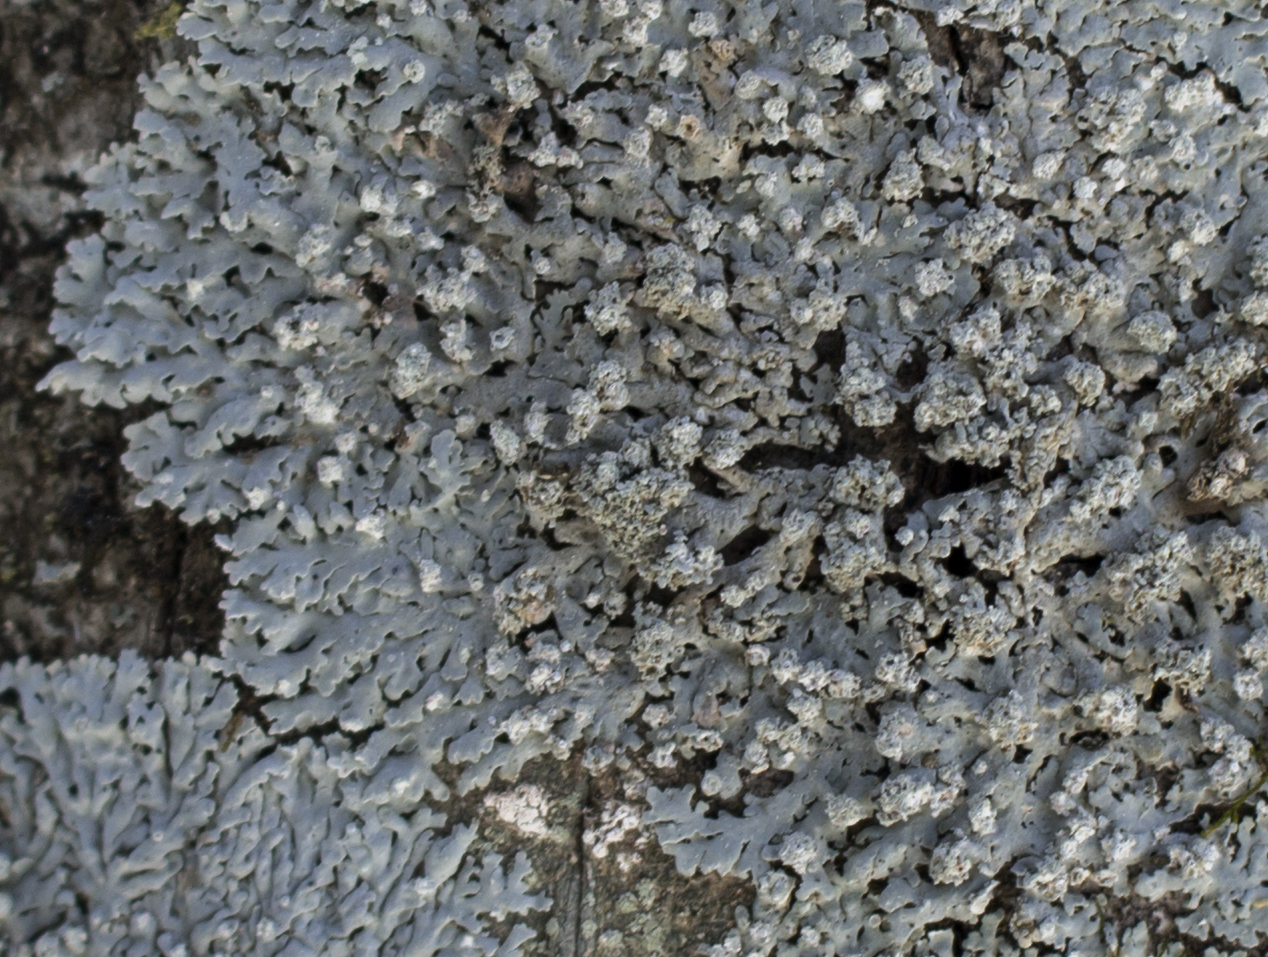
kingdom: Fungi
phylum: Ascomycota
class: Lecanoromycetes
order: Caliciales
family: Physciaceae
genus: Physcia
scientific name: Physcia americana
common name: American rosette lichen
